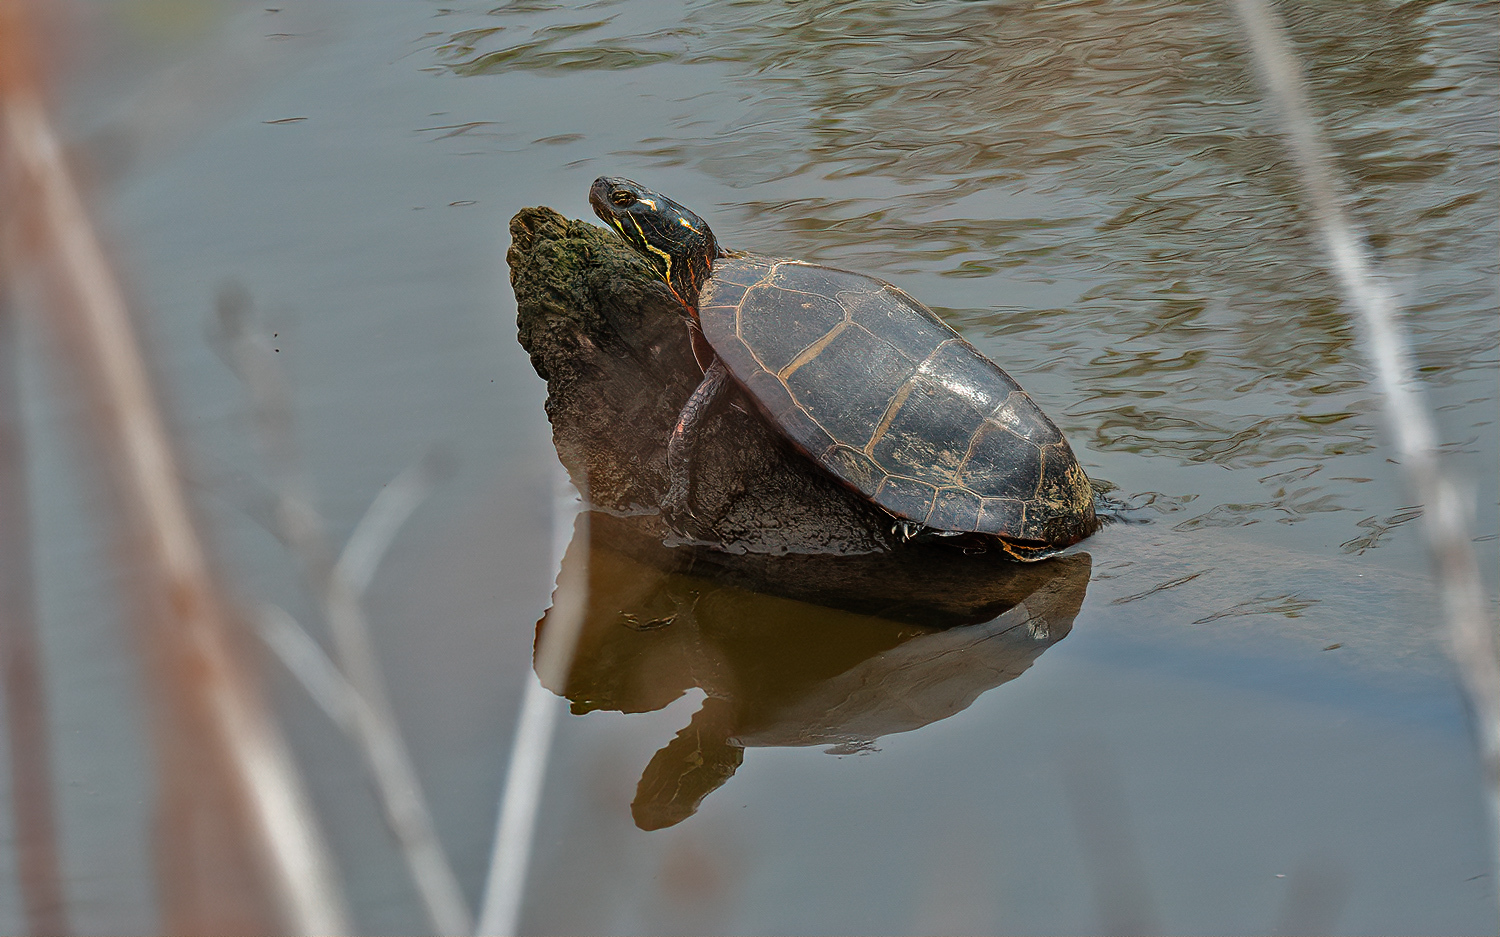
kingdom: Animalia
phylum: Chordata
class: Testudines
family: Emydidae
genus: Chrysemys
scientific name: Chrysemys picta
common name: Painted turtle
